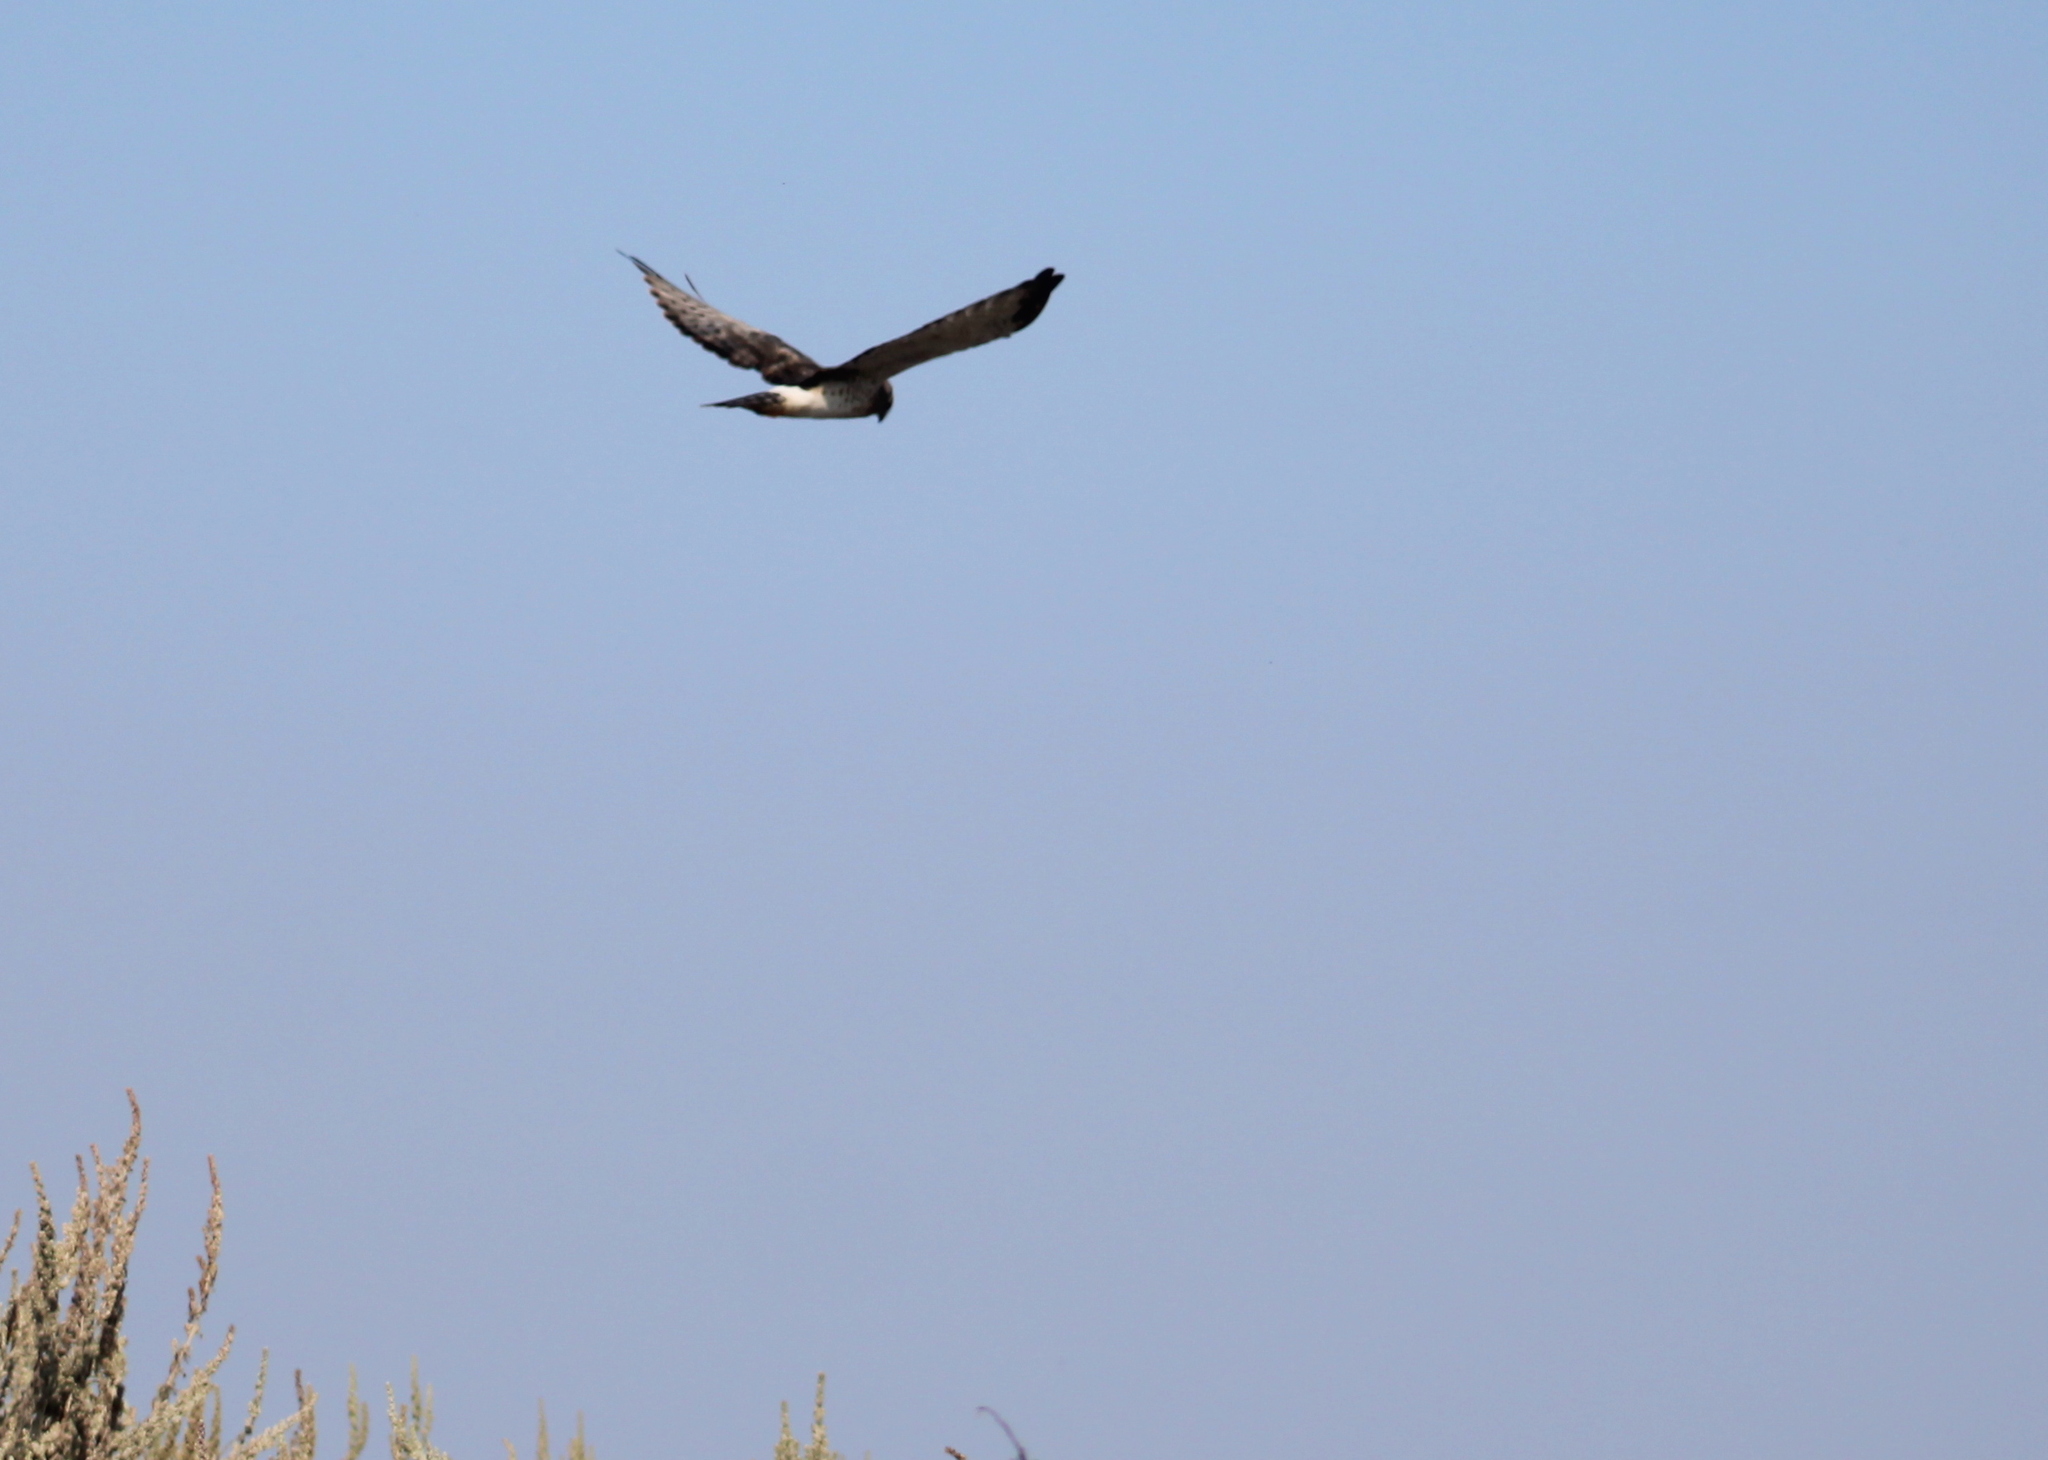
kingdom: Animalia
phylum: Chordata
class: Aves
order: Accipitriformes
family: Accipitridae
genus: Circus
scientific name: Circus cyaneus
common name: Hen harrier
